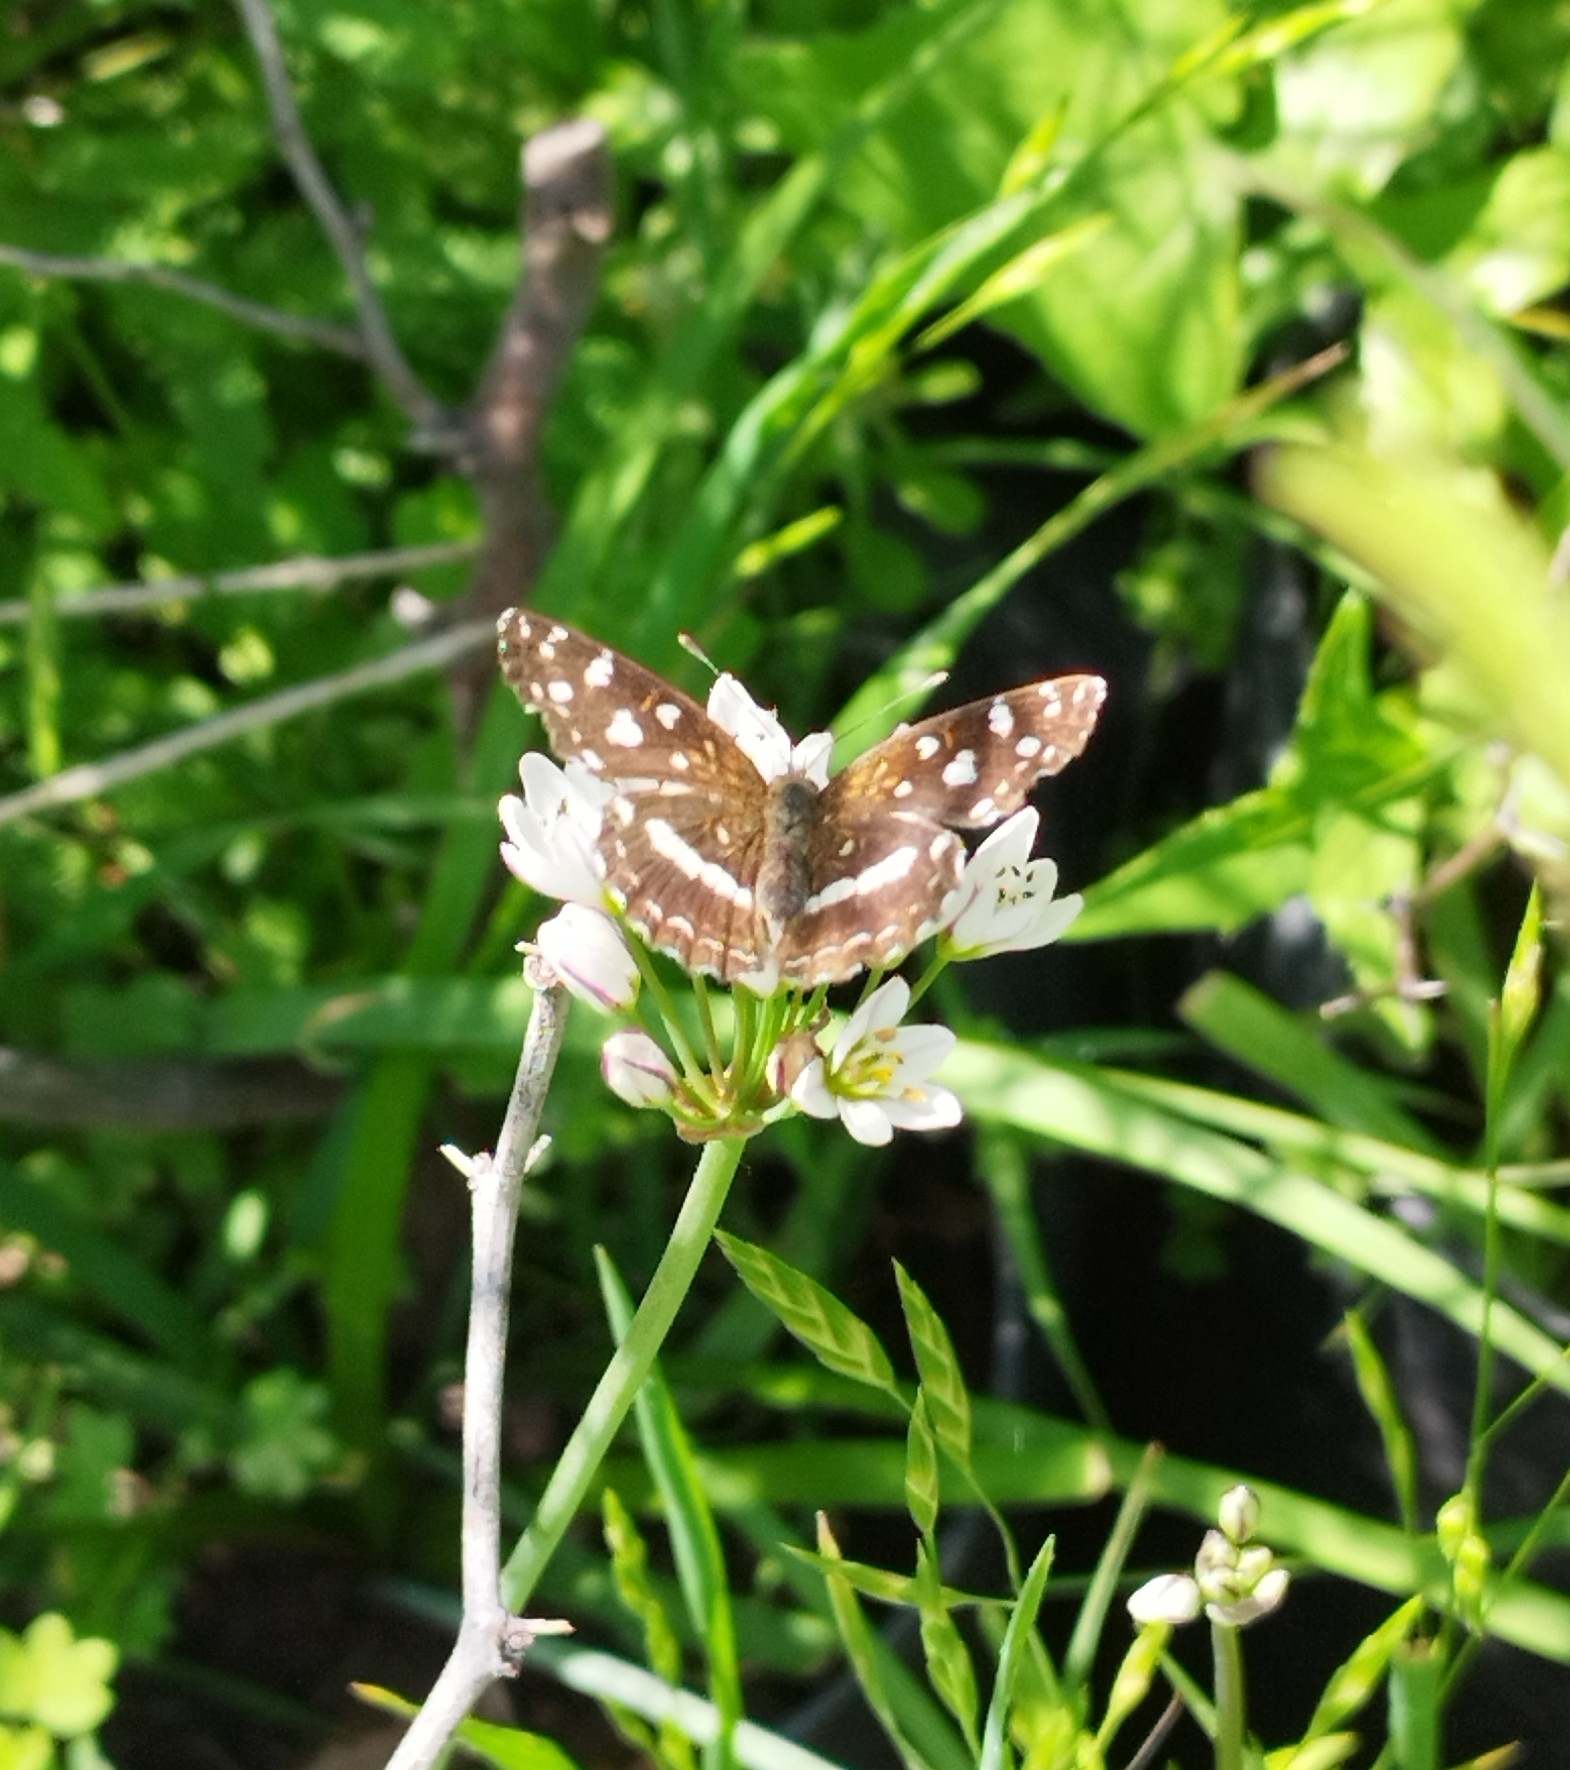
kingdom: Animalia
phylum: Arthropoda
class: Insecta
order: Lepidoptera
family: Nymphalidae
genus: Ortilia
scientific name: Ortilia ithra
